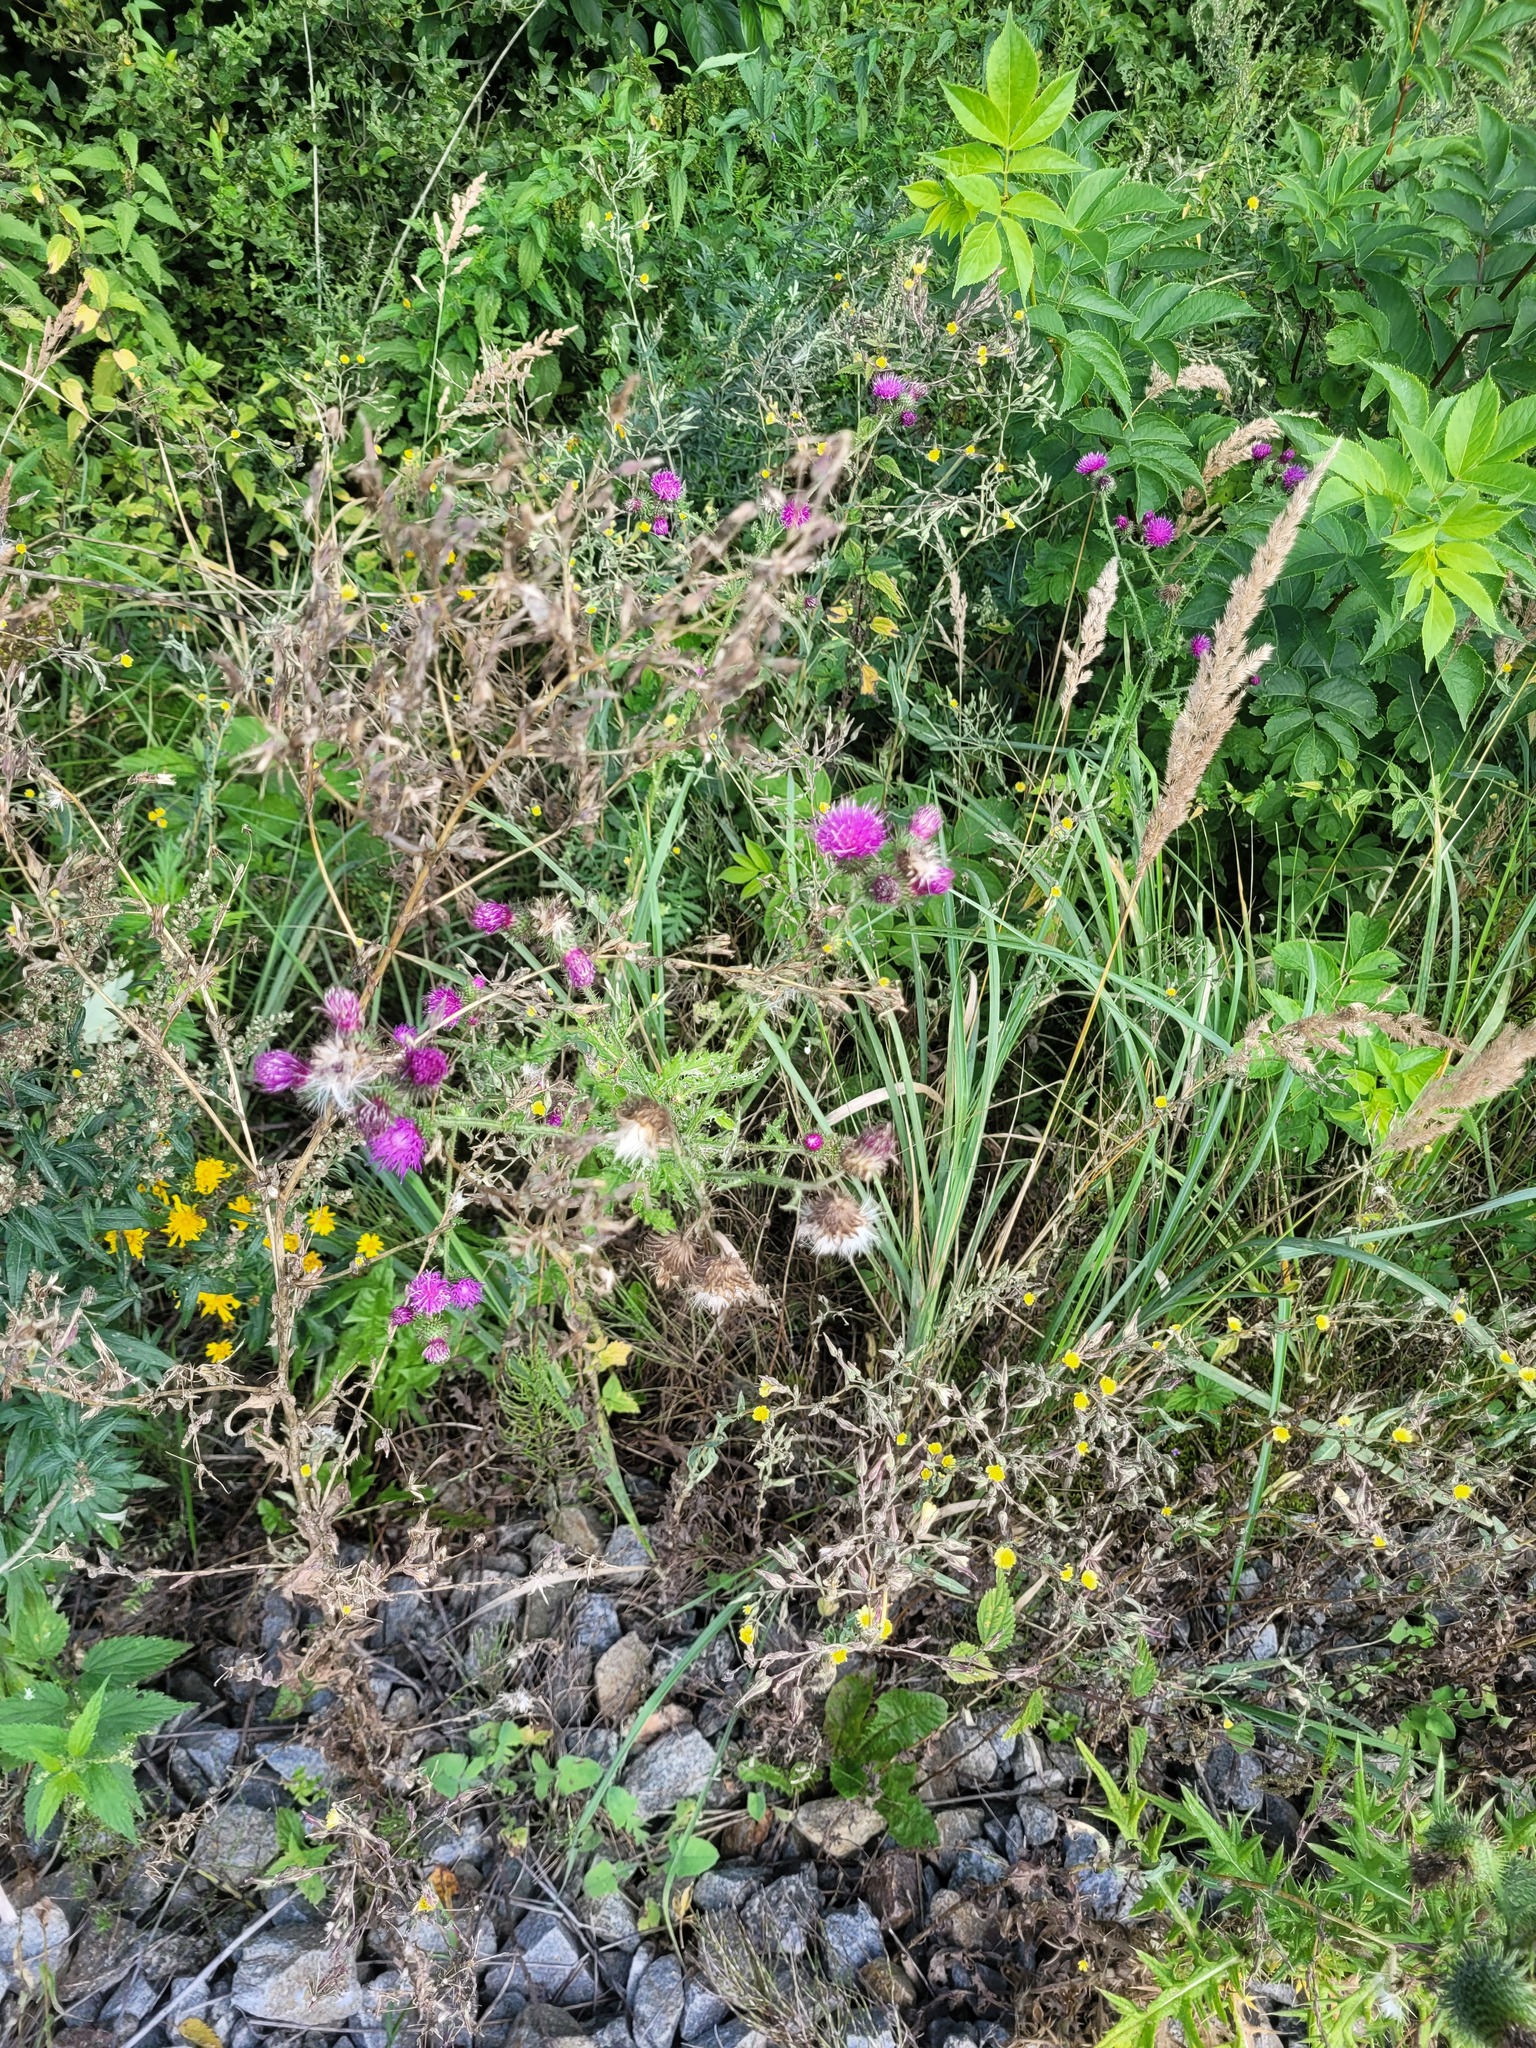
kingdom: Plantae
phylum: Tracheophyta
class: Magnoliopsida
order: Asterales
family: Asteraceae
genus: Carduus
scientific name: Carduus crispus
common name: Welted thistle
